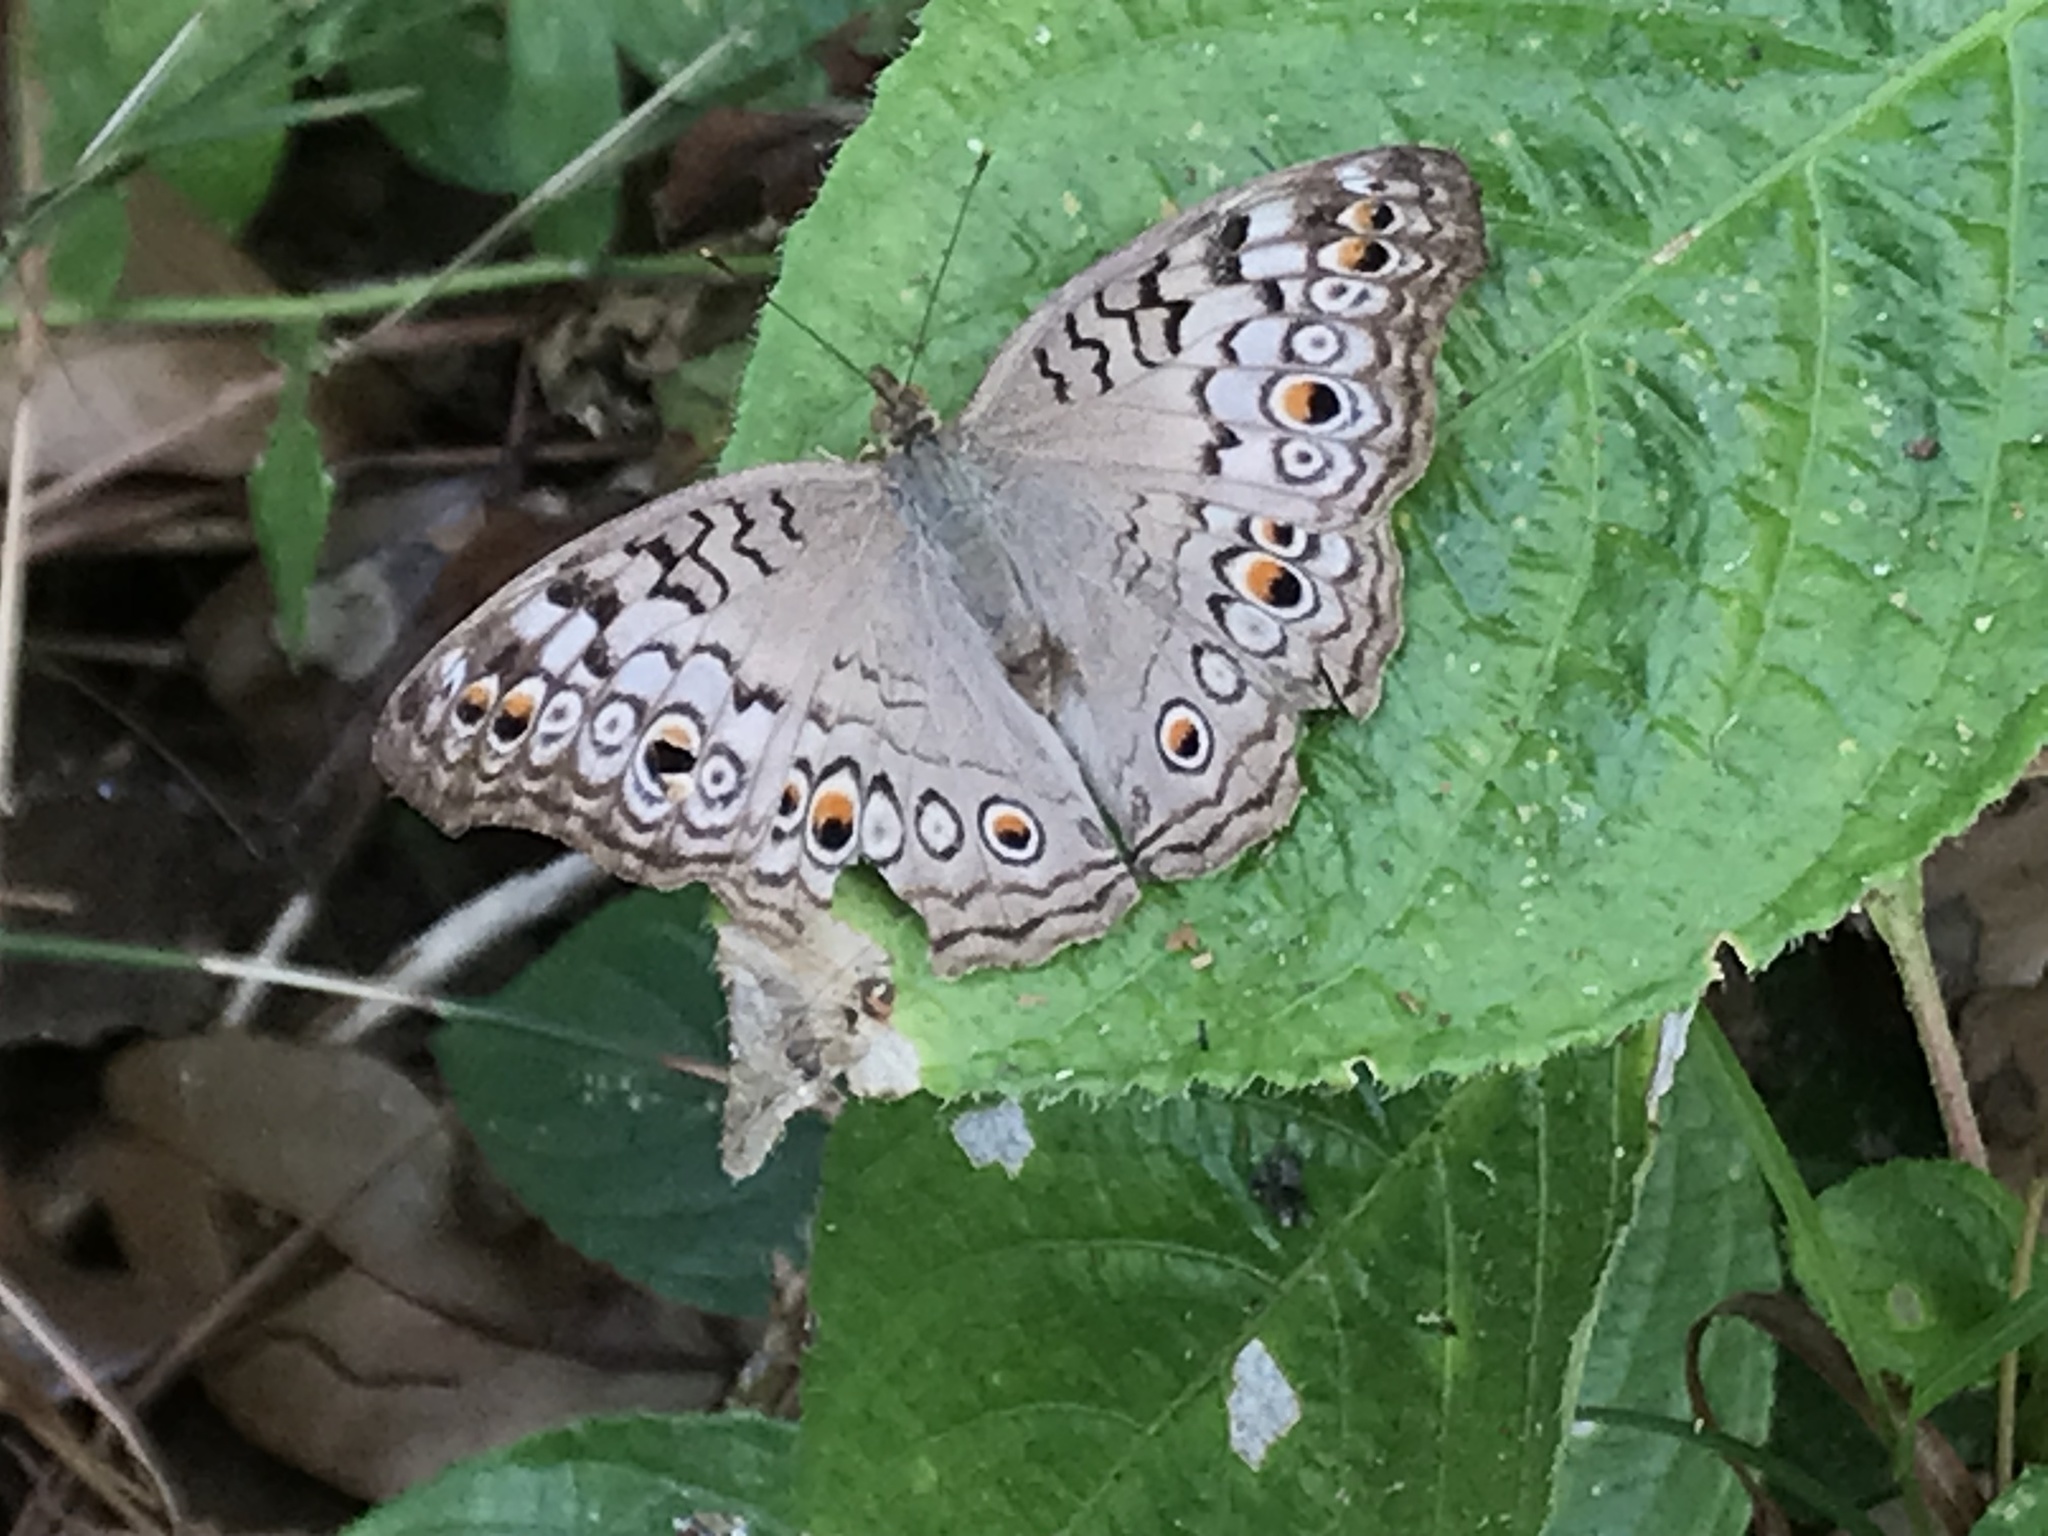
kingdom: Animalia
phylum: Arthropoda
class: Insecta
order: Lepidoptera
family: Nymphalidae
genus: Junonia
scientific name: Junonia atlites
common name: Grey pansy
